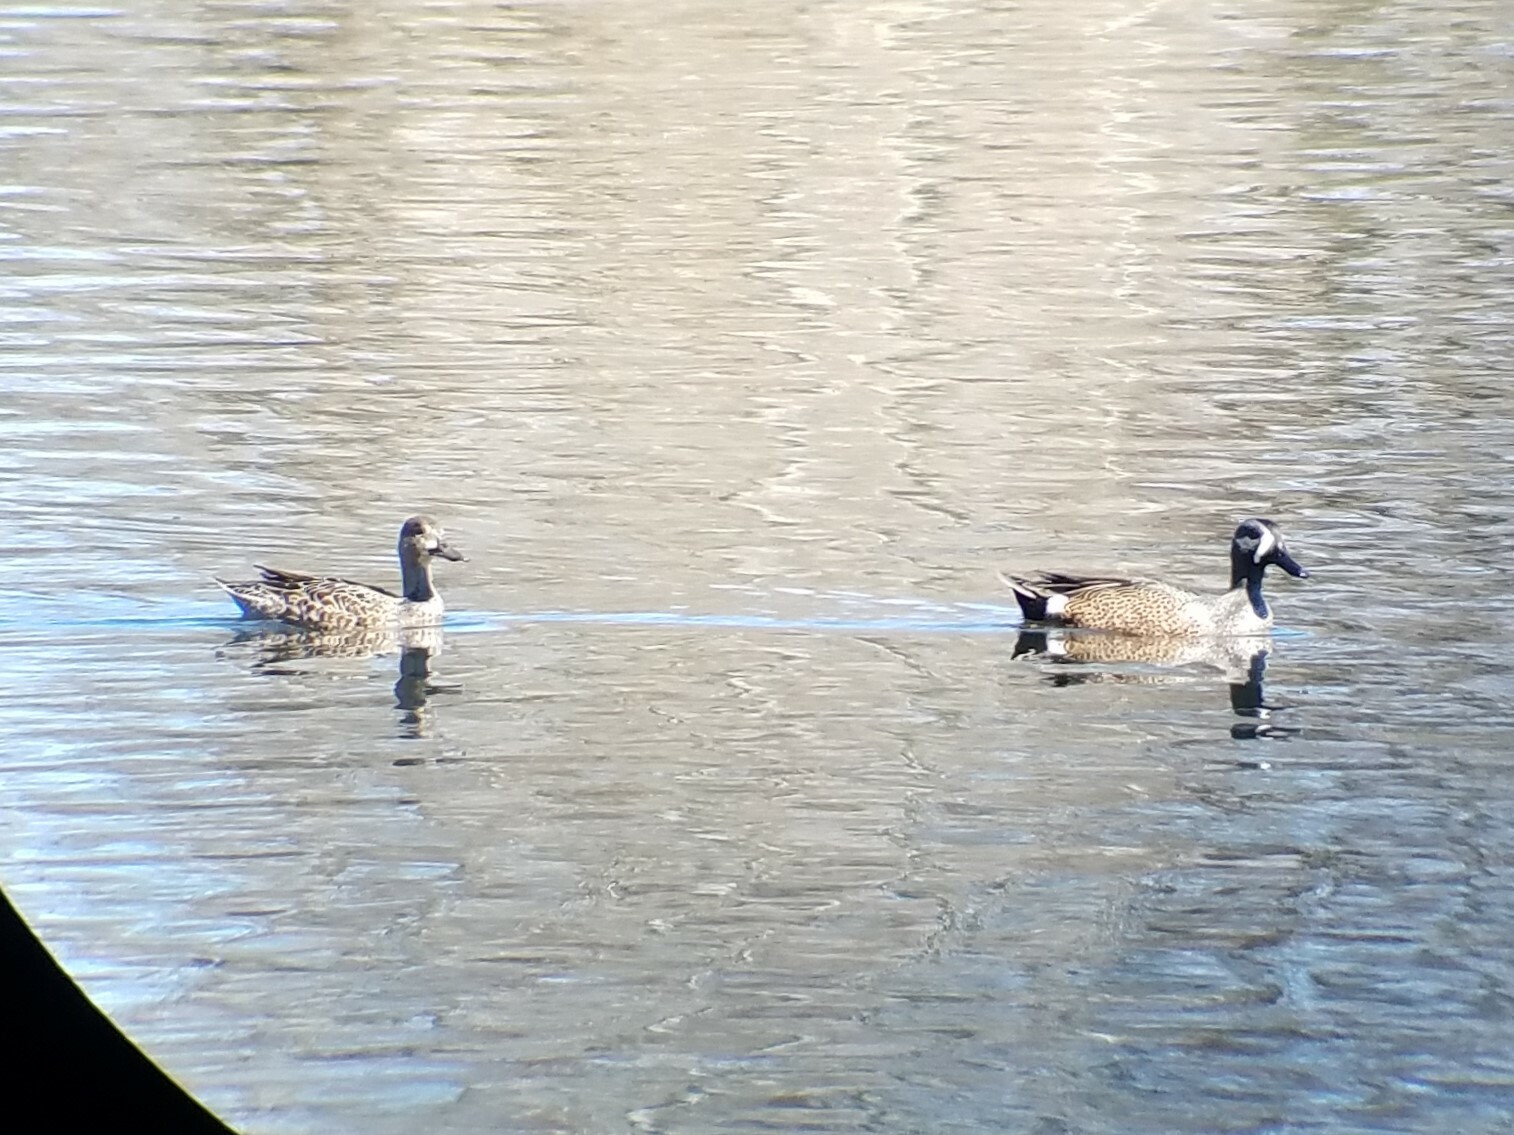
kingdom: Animalia
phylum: Chordata
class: Aves
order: Anseriformes
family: Anatidae
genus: Spatula
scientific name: Spatula discors
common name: Blue-winged teal
